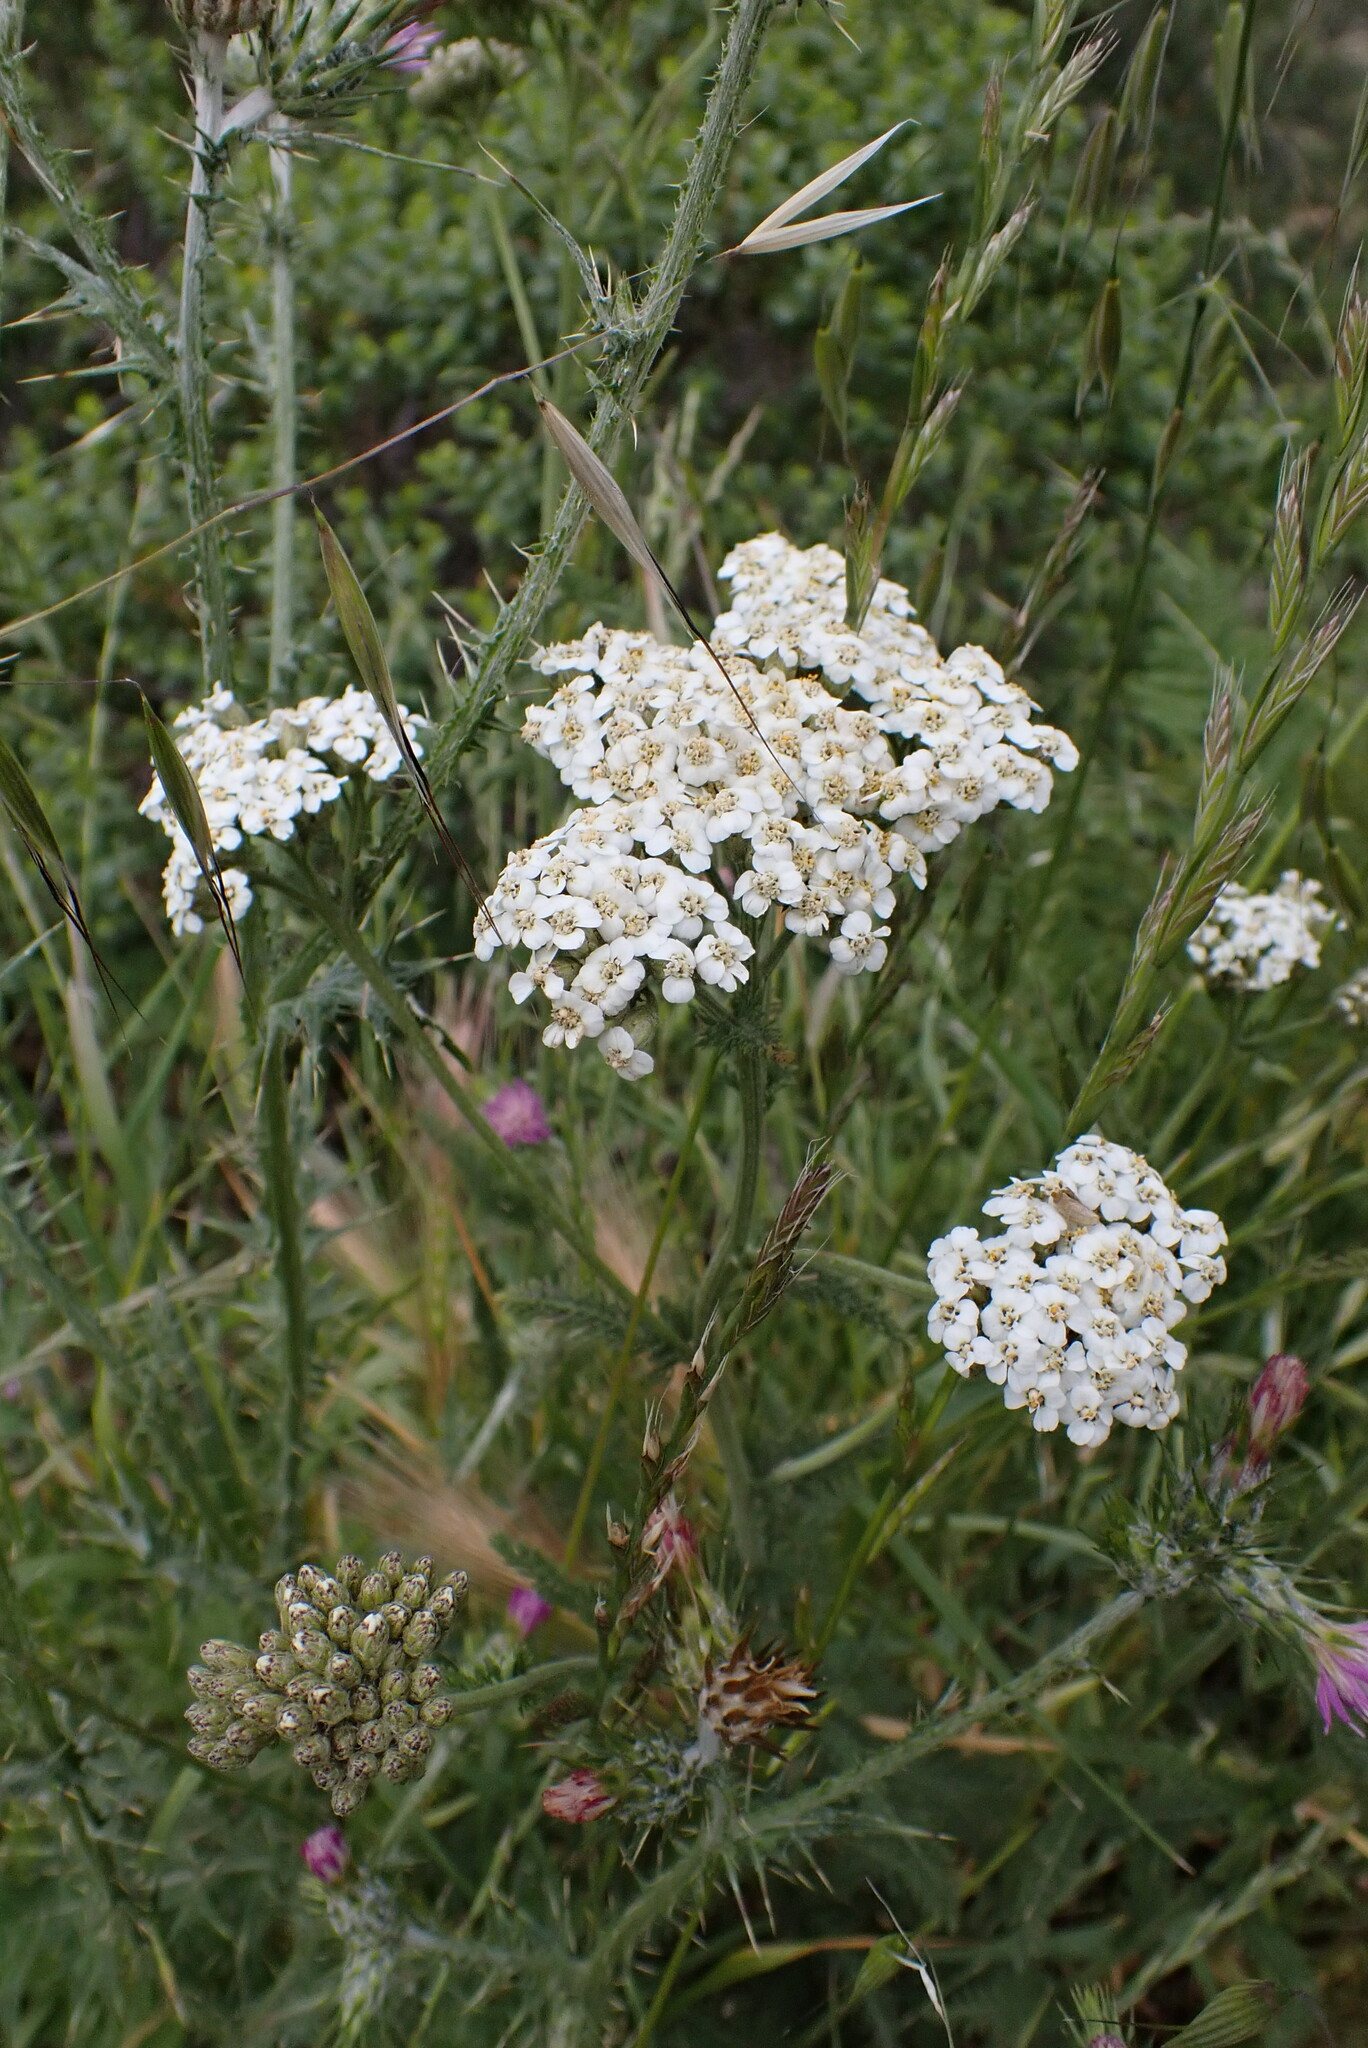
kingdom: Plantae
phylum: Tracheophyta
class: Magnoliopsida
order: Asterales
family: Asteraceae
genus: Achillea
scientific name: Achillea millefolium
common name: Yarrow
